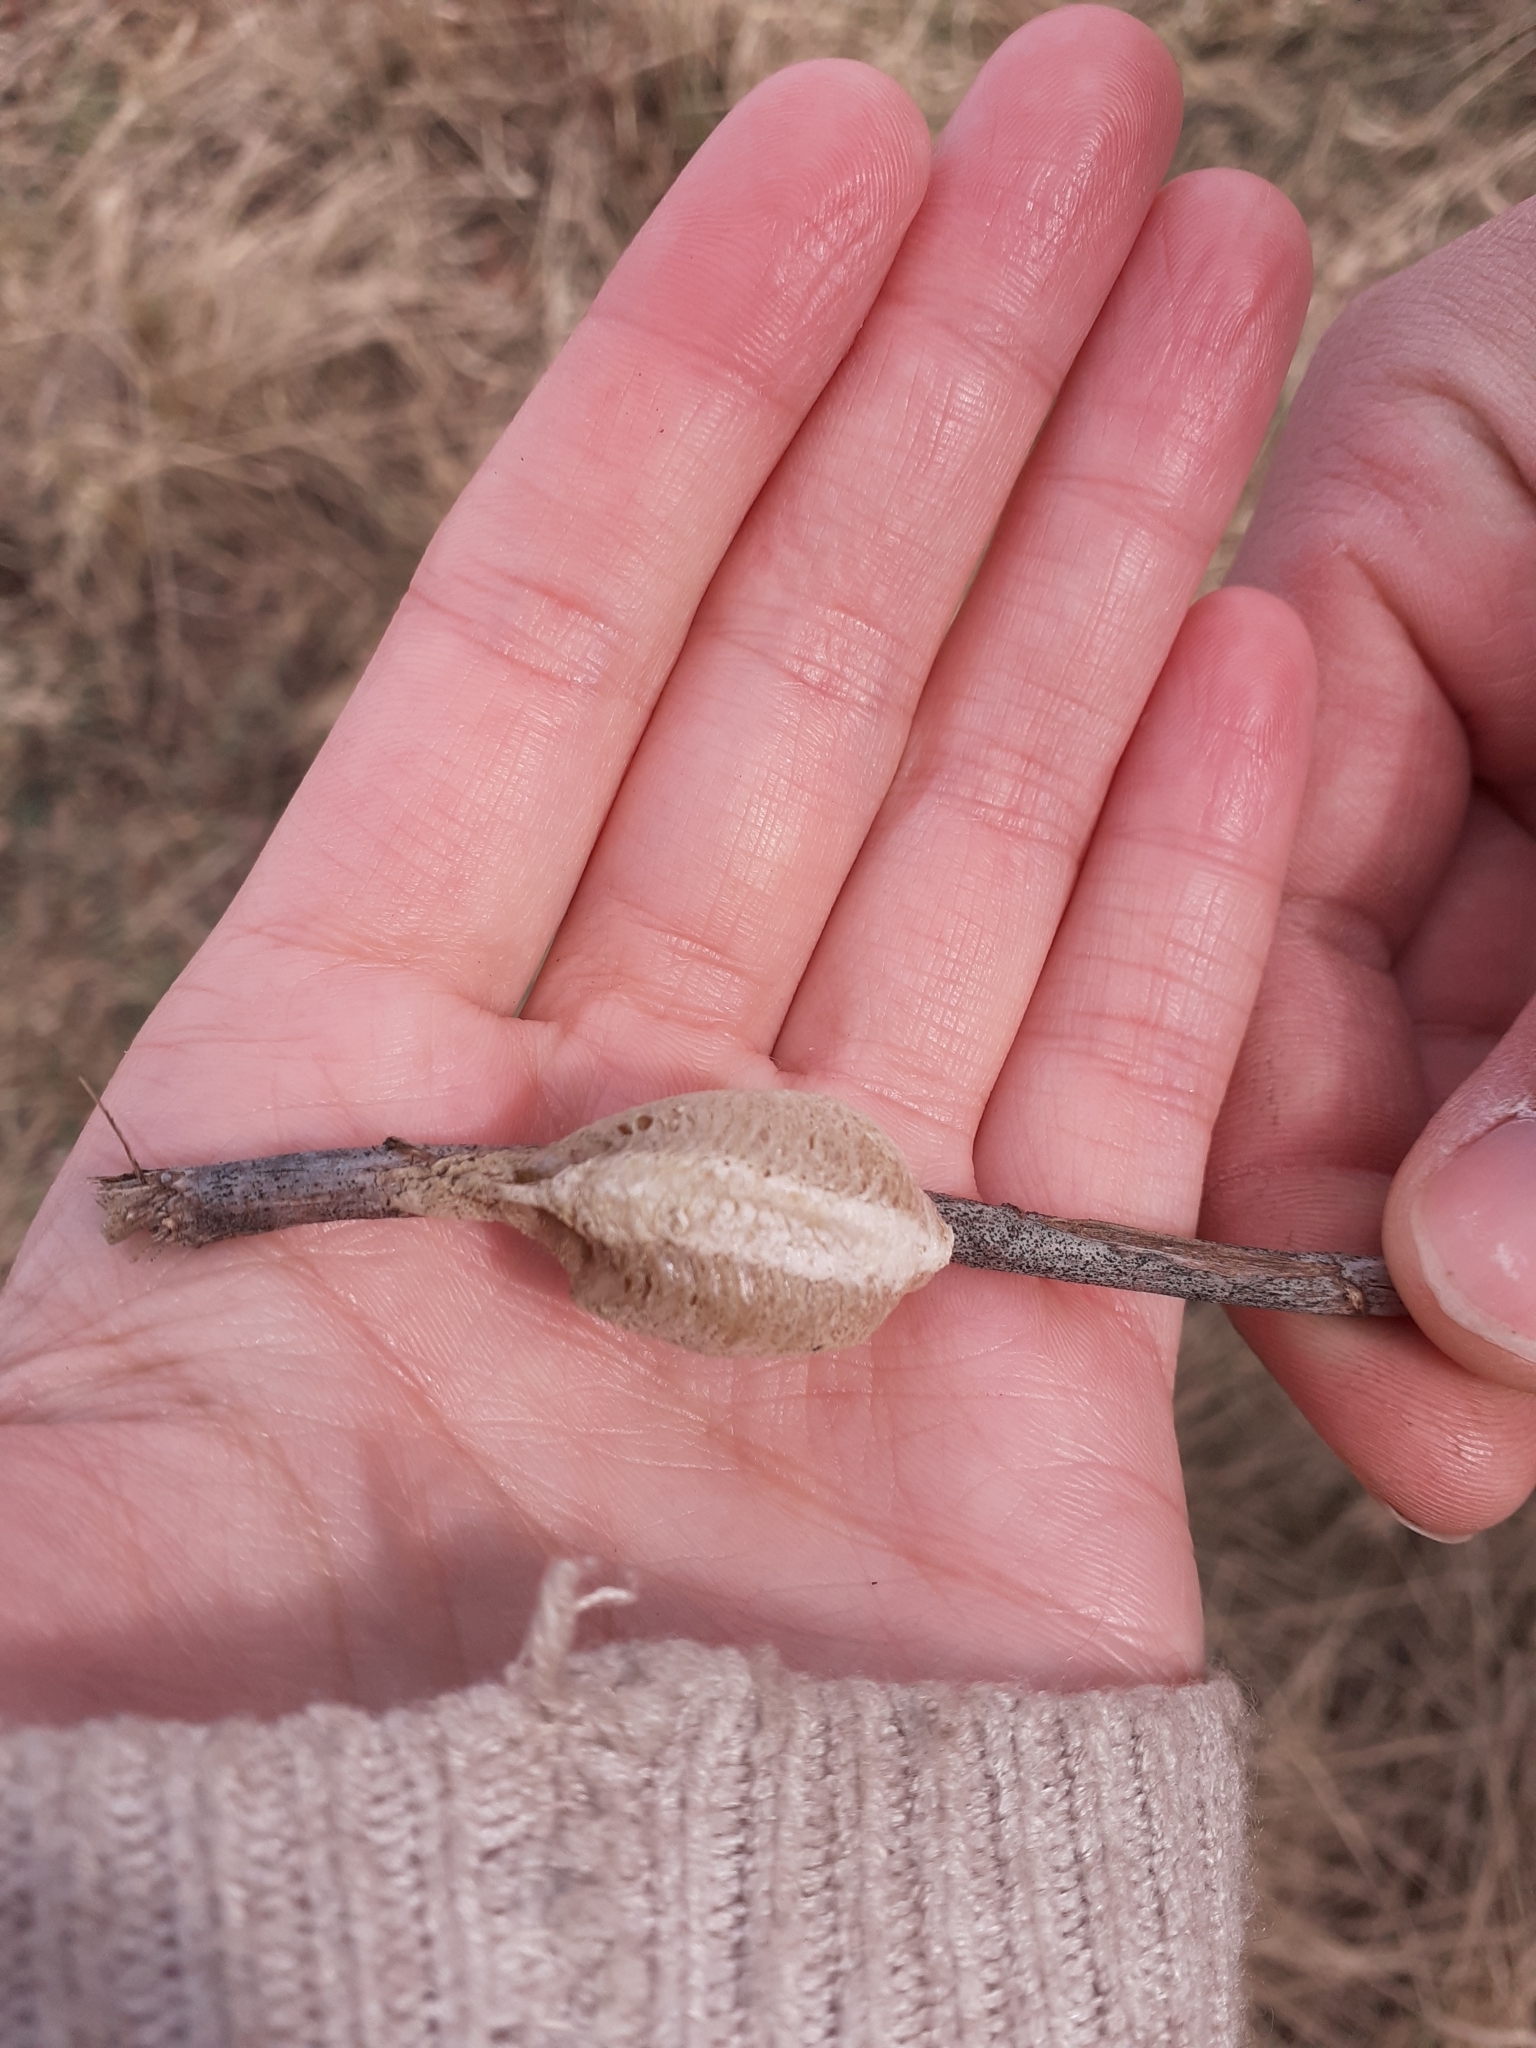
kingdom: Animalia
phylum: Arthropoda
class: Insecta
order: Mantodea
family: Mantidae
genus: Mantis
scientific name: Mantis religiosa
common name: Praying mantis
